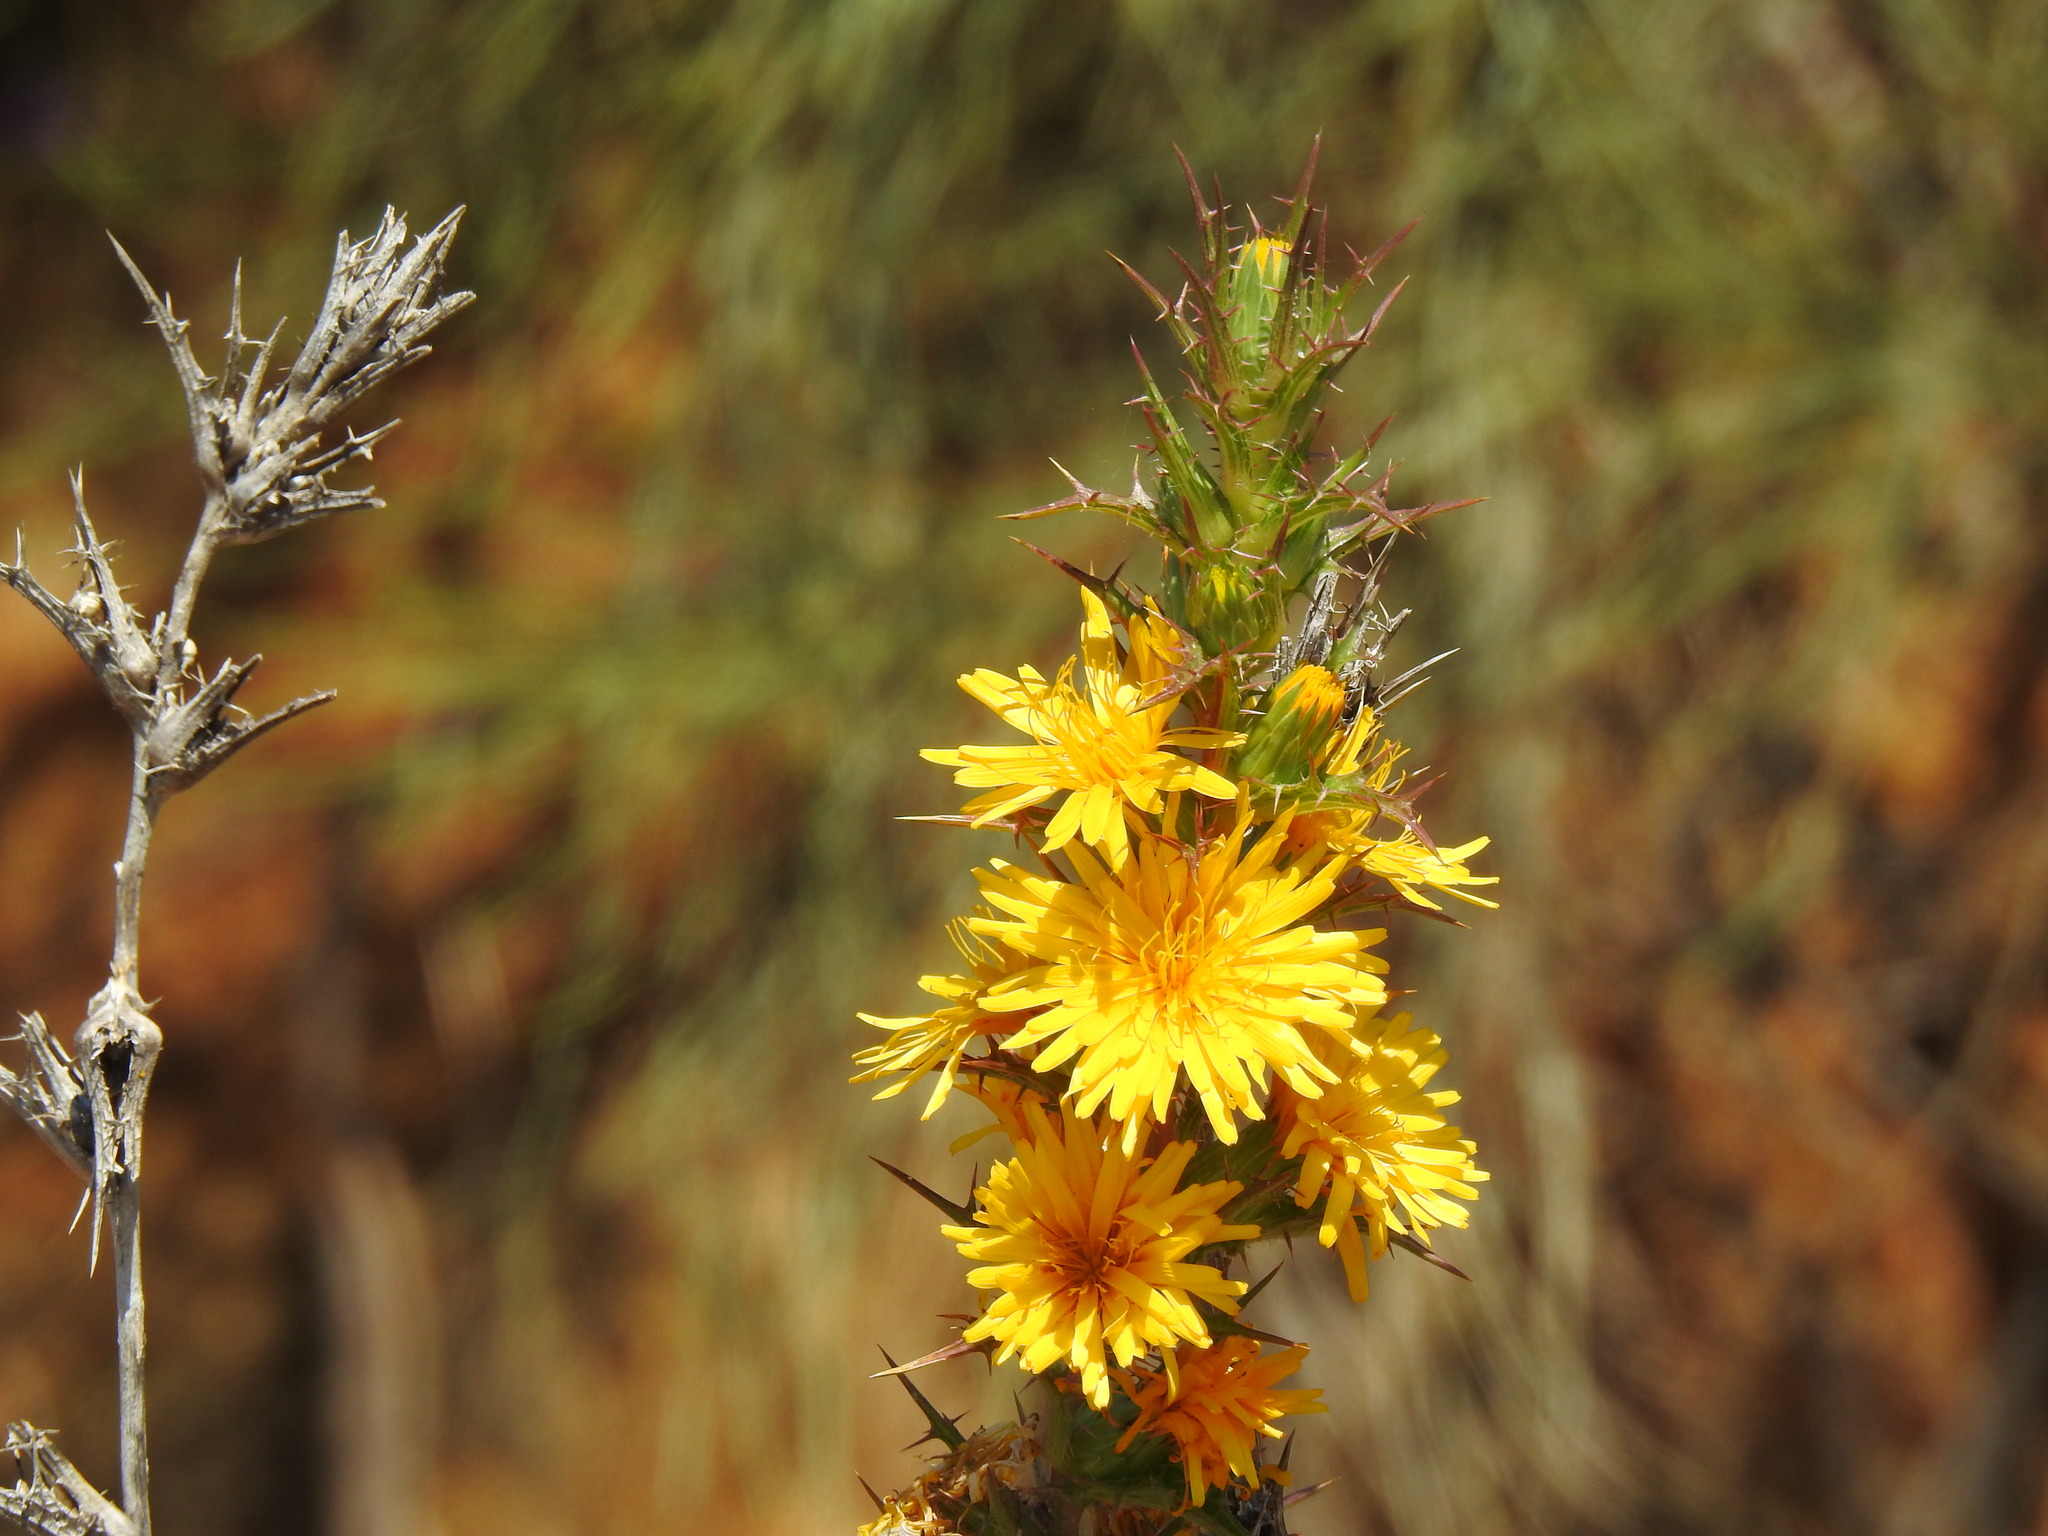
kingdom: Plantae
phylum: Tracheophyta
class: Magnoliopsida
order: Asterales
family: Asteraceae
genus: Scolymus
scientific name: Scolymus hispanicus
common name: Golden thistle
